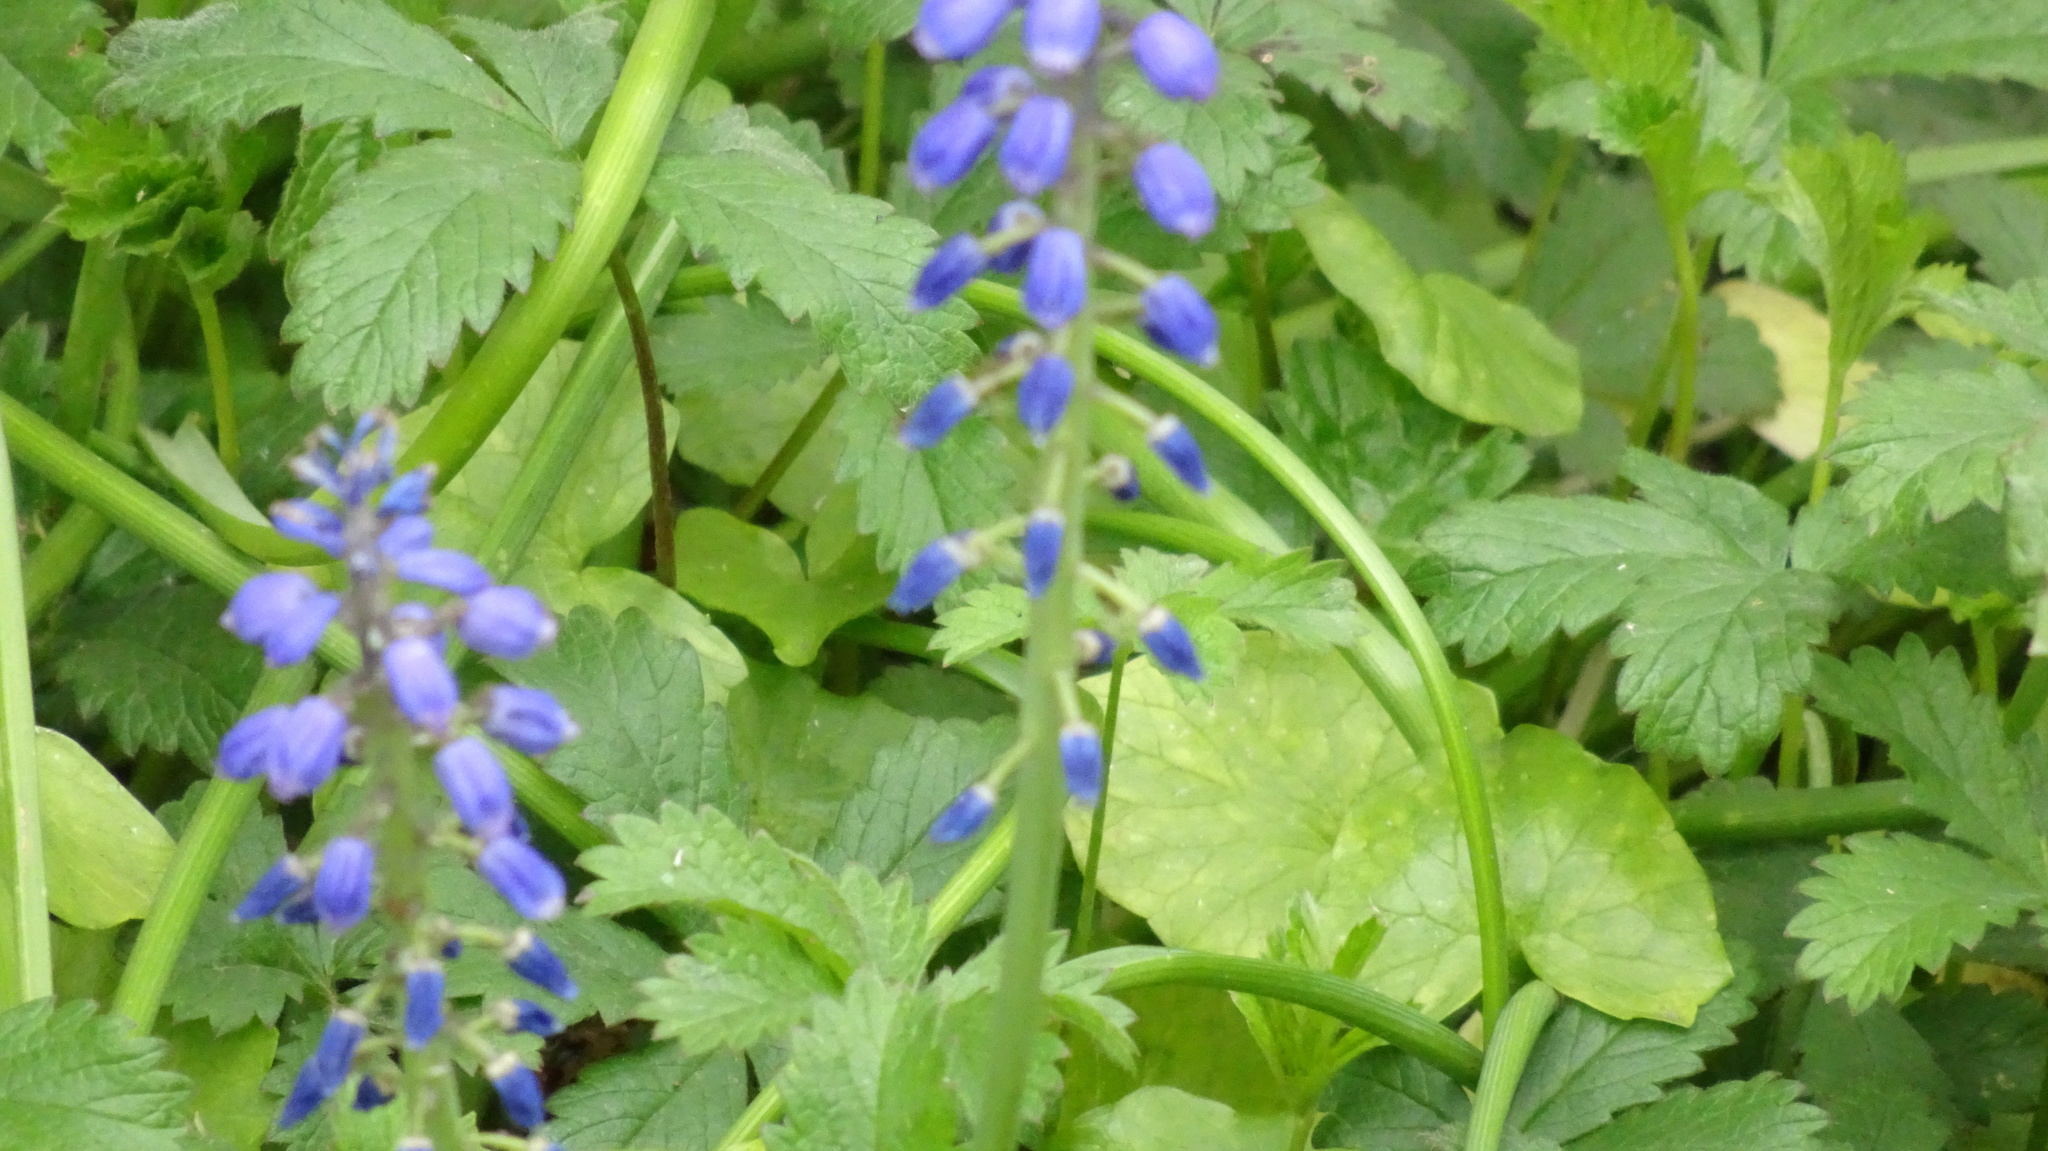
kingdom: Plantae
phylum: Tracheophyta
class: Liliopsida
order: Asparagales
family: Asparagaceae
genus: Muscari
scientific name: Muscari armeniacum
